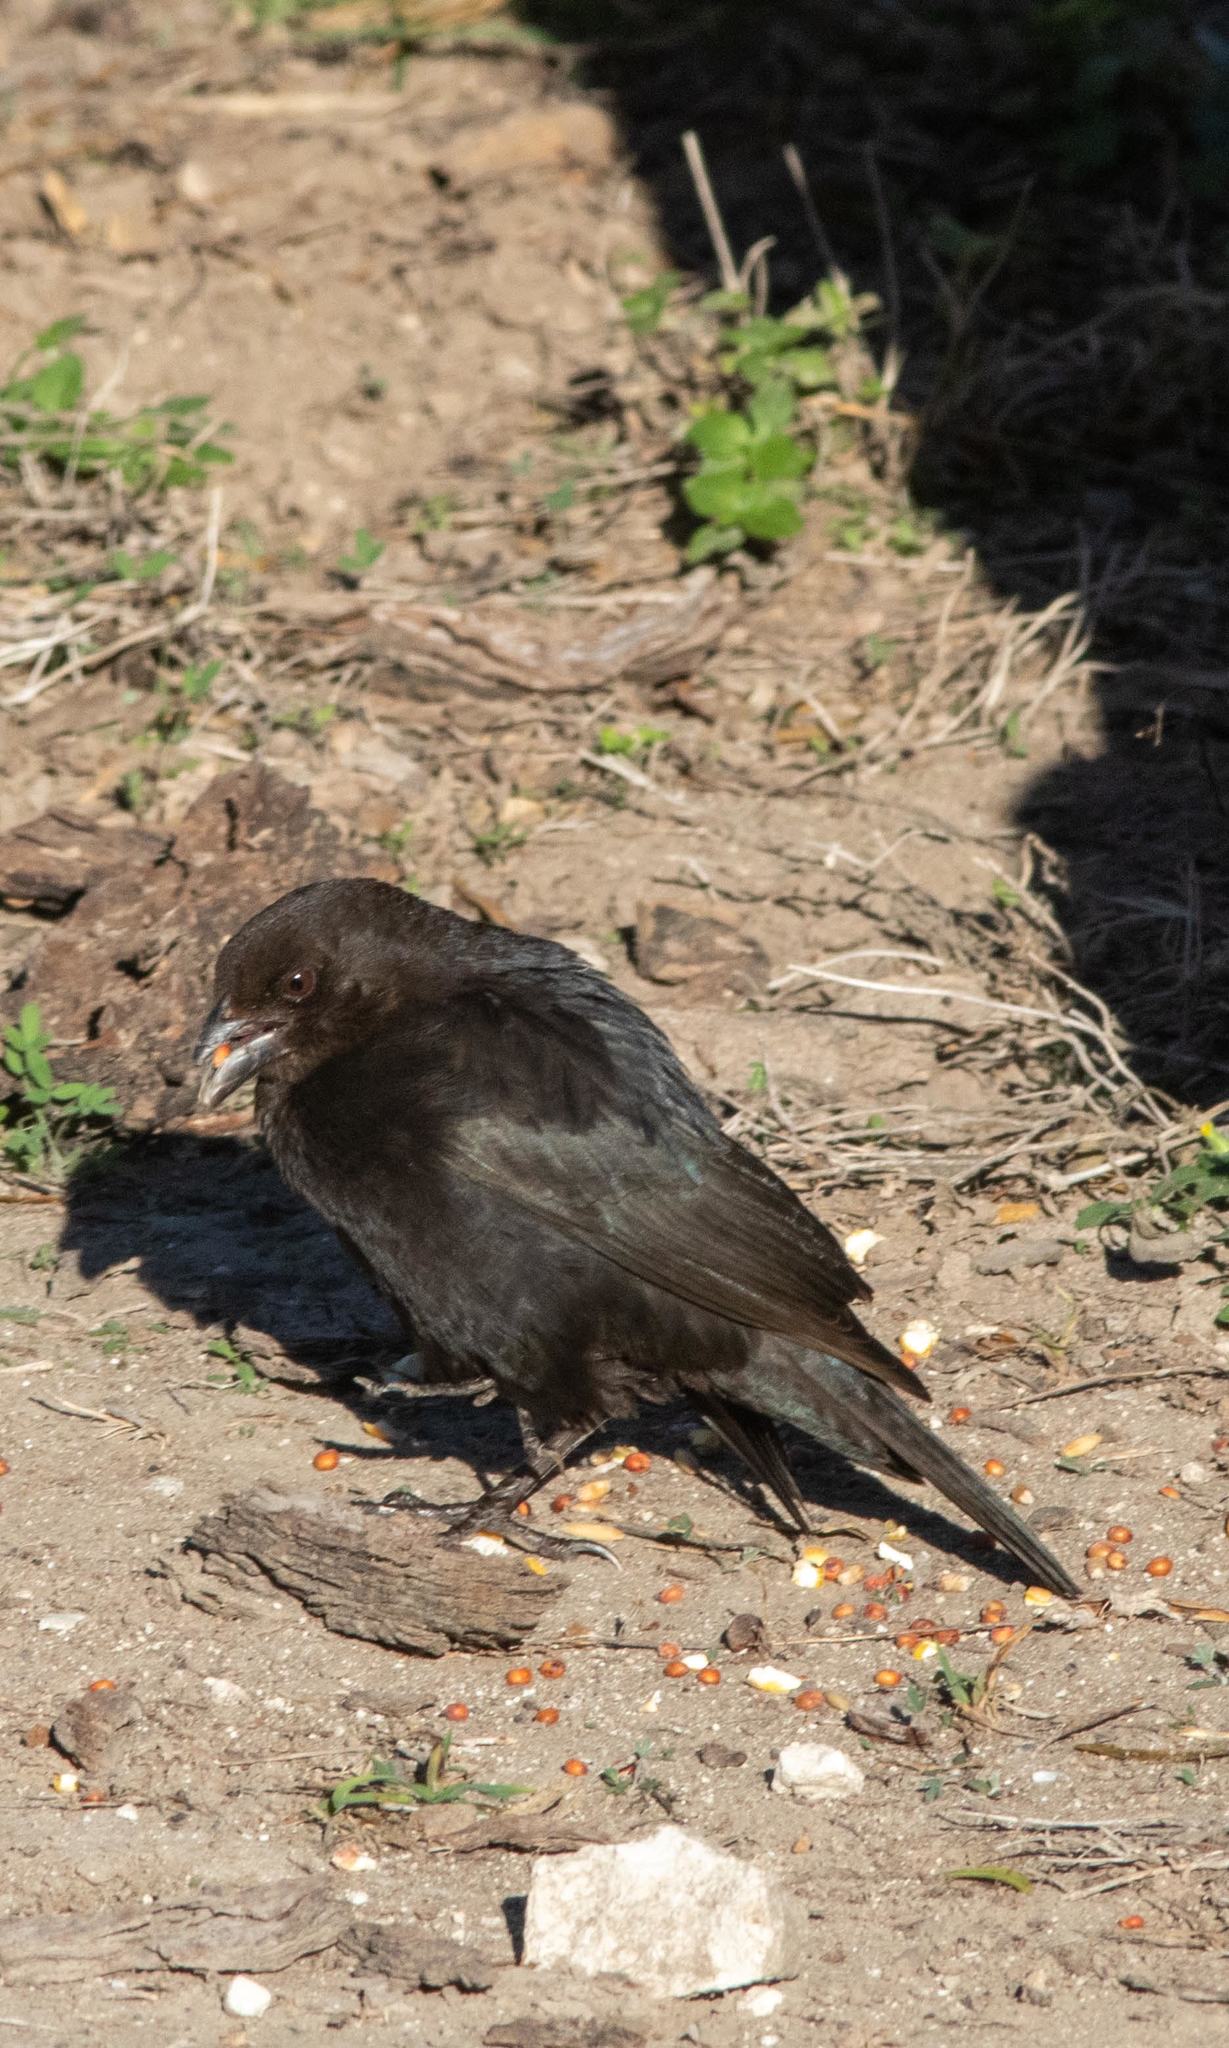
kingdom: Animalia
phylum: Chordata
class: Aves
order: Passeriformes
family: Icteridae
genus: Molothrus
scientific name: Molothrus aeneus
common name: Bronzed cowbird
